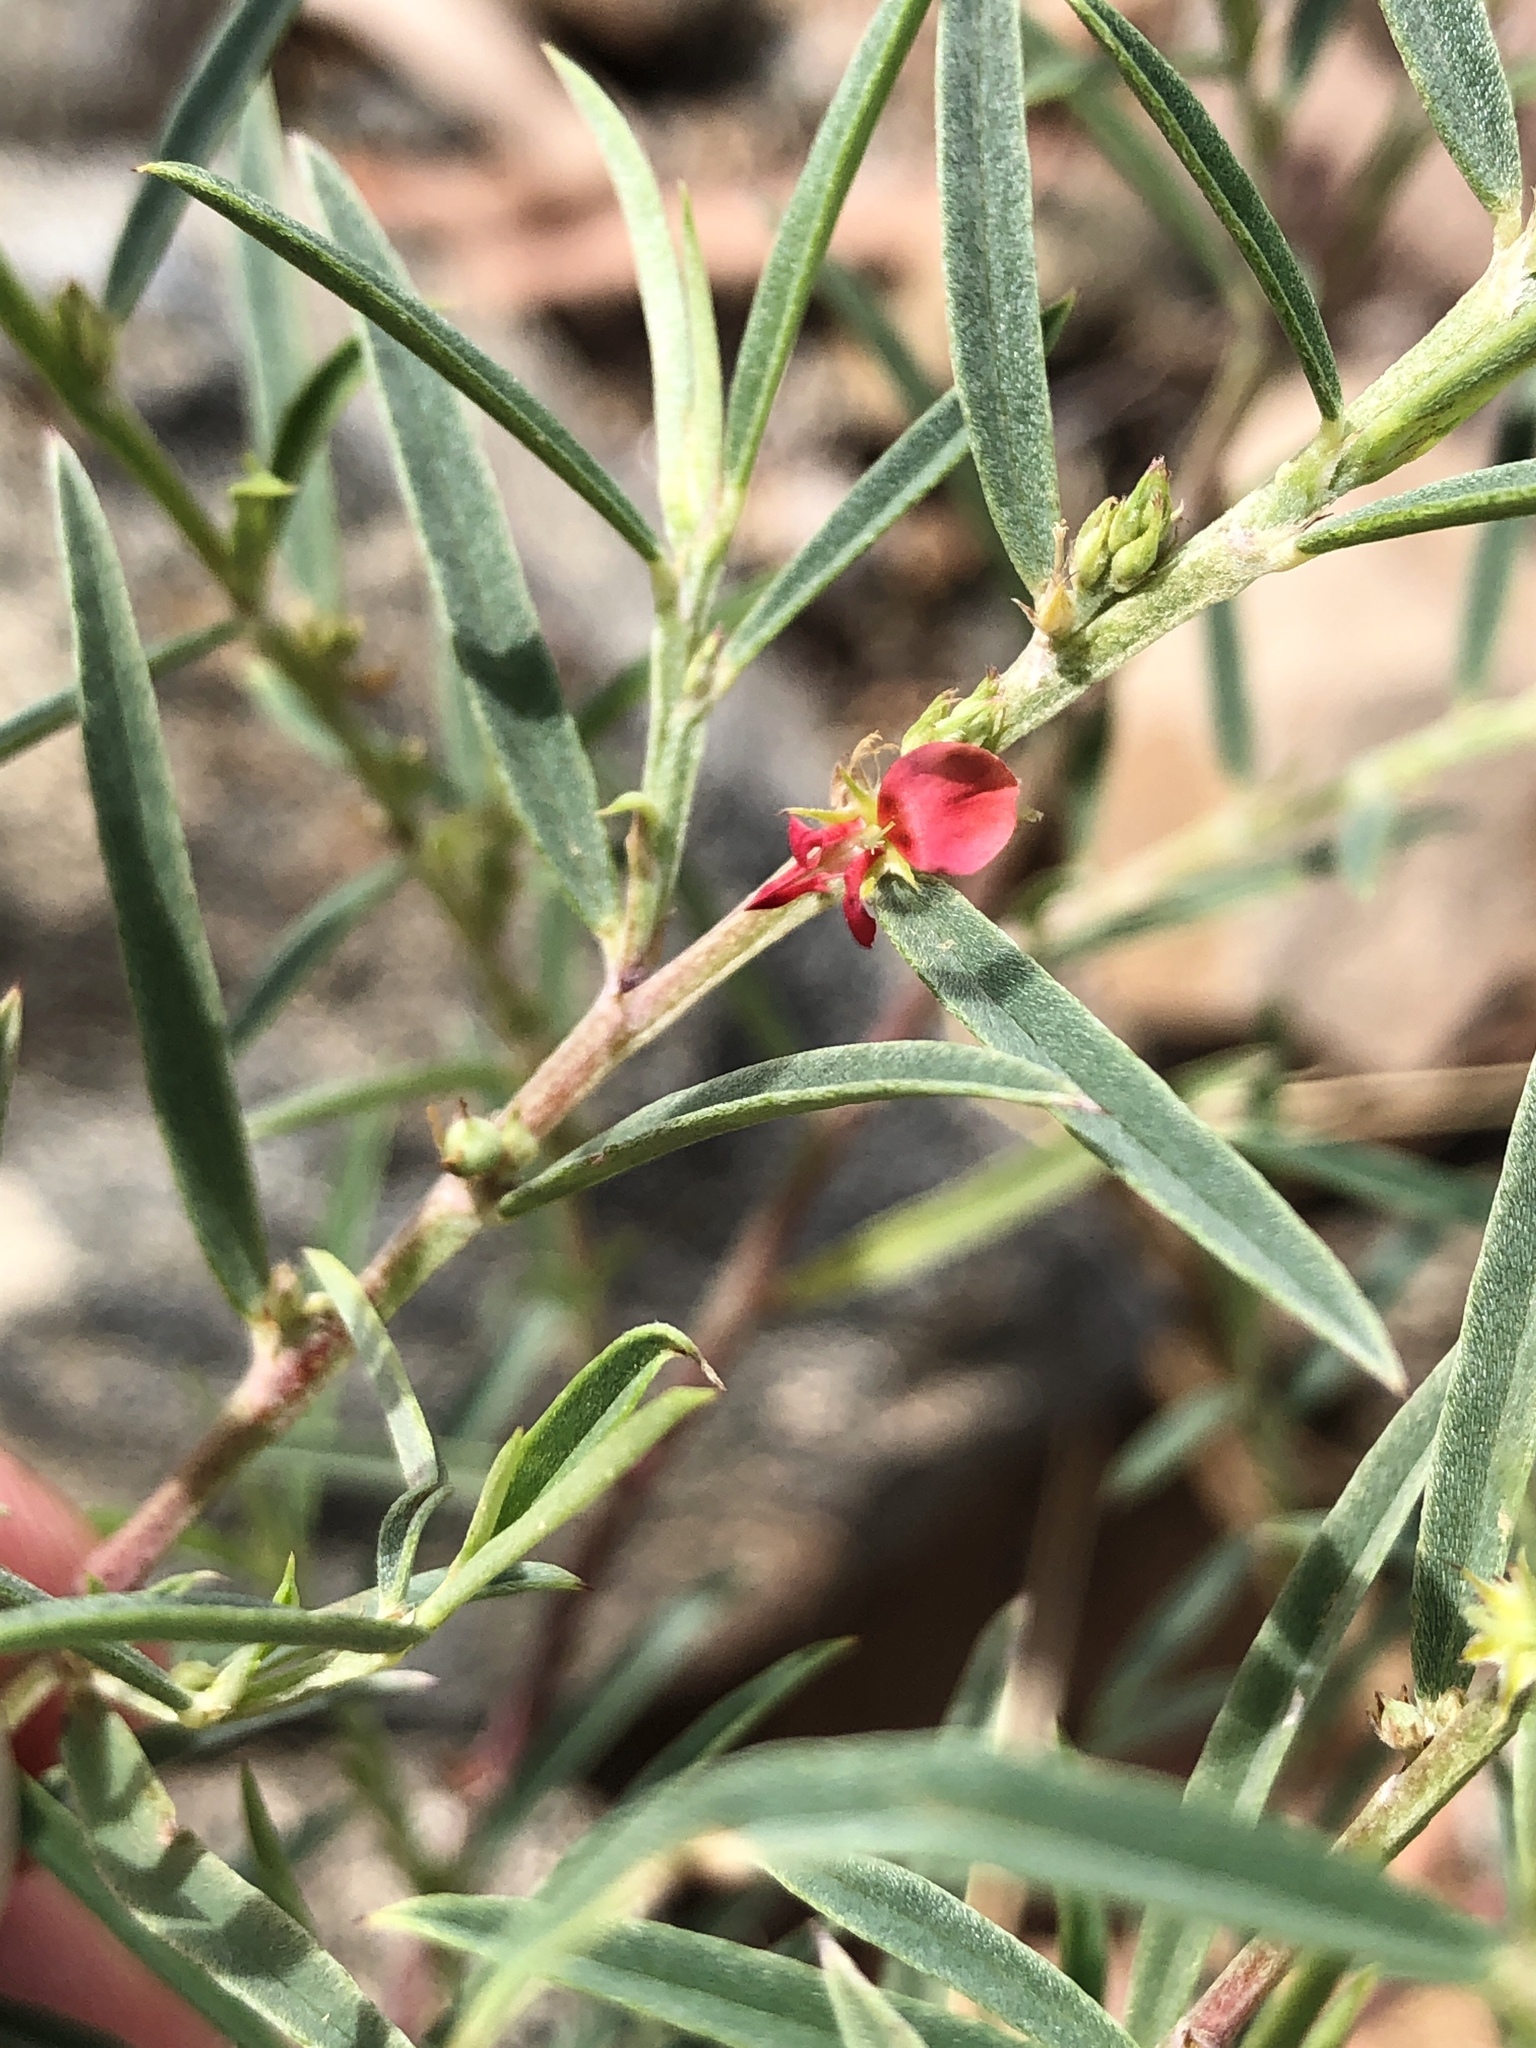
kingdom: Plantae
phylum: Tracheophyta
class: Magnoliopsida
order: Fabales
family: Fabaceae
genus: Indigofera
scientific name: Indigofera linifolia
